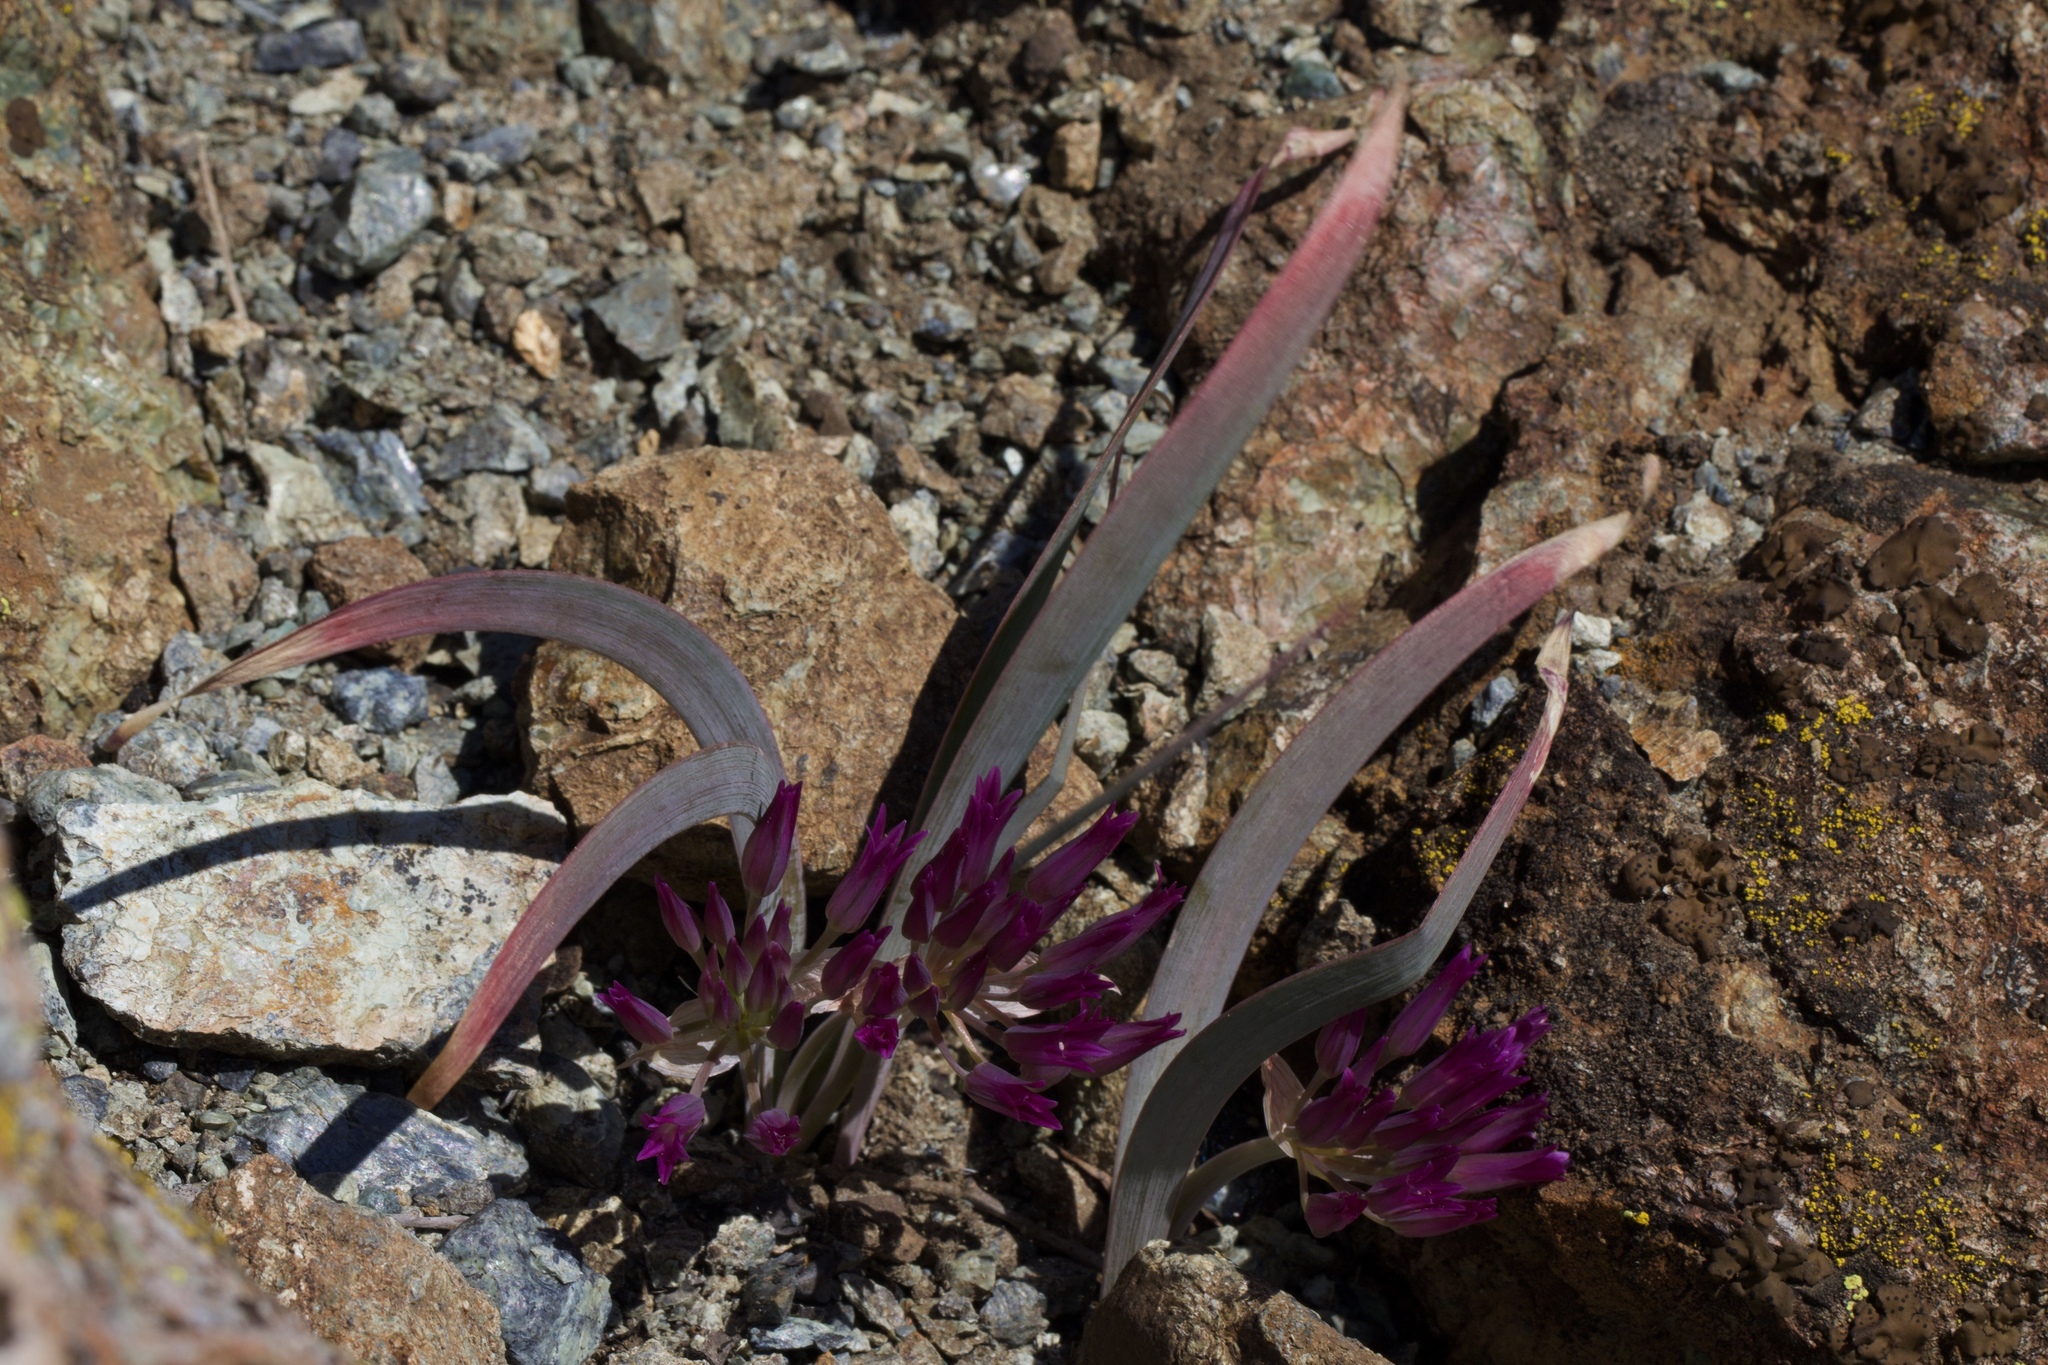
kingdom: Plantae
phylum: Tracheophyta
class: Liliopsida
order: Asparagales
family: Amaryllidaceae
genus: Allium
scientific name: Allium falcifolium
